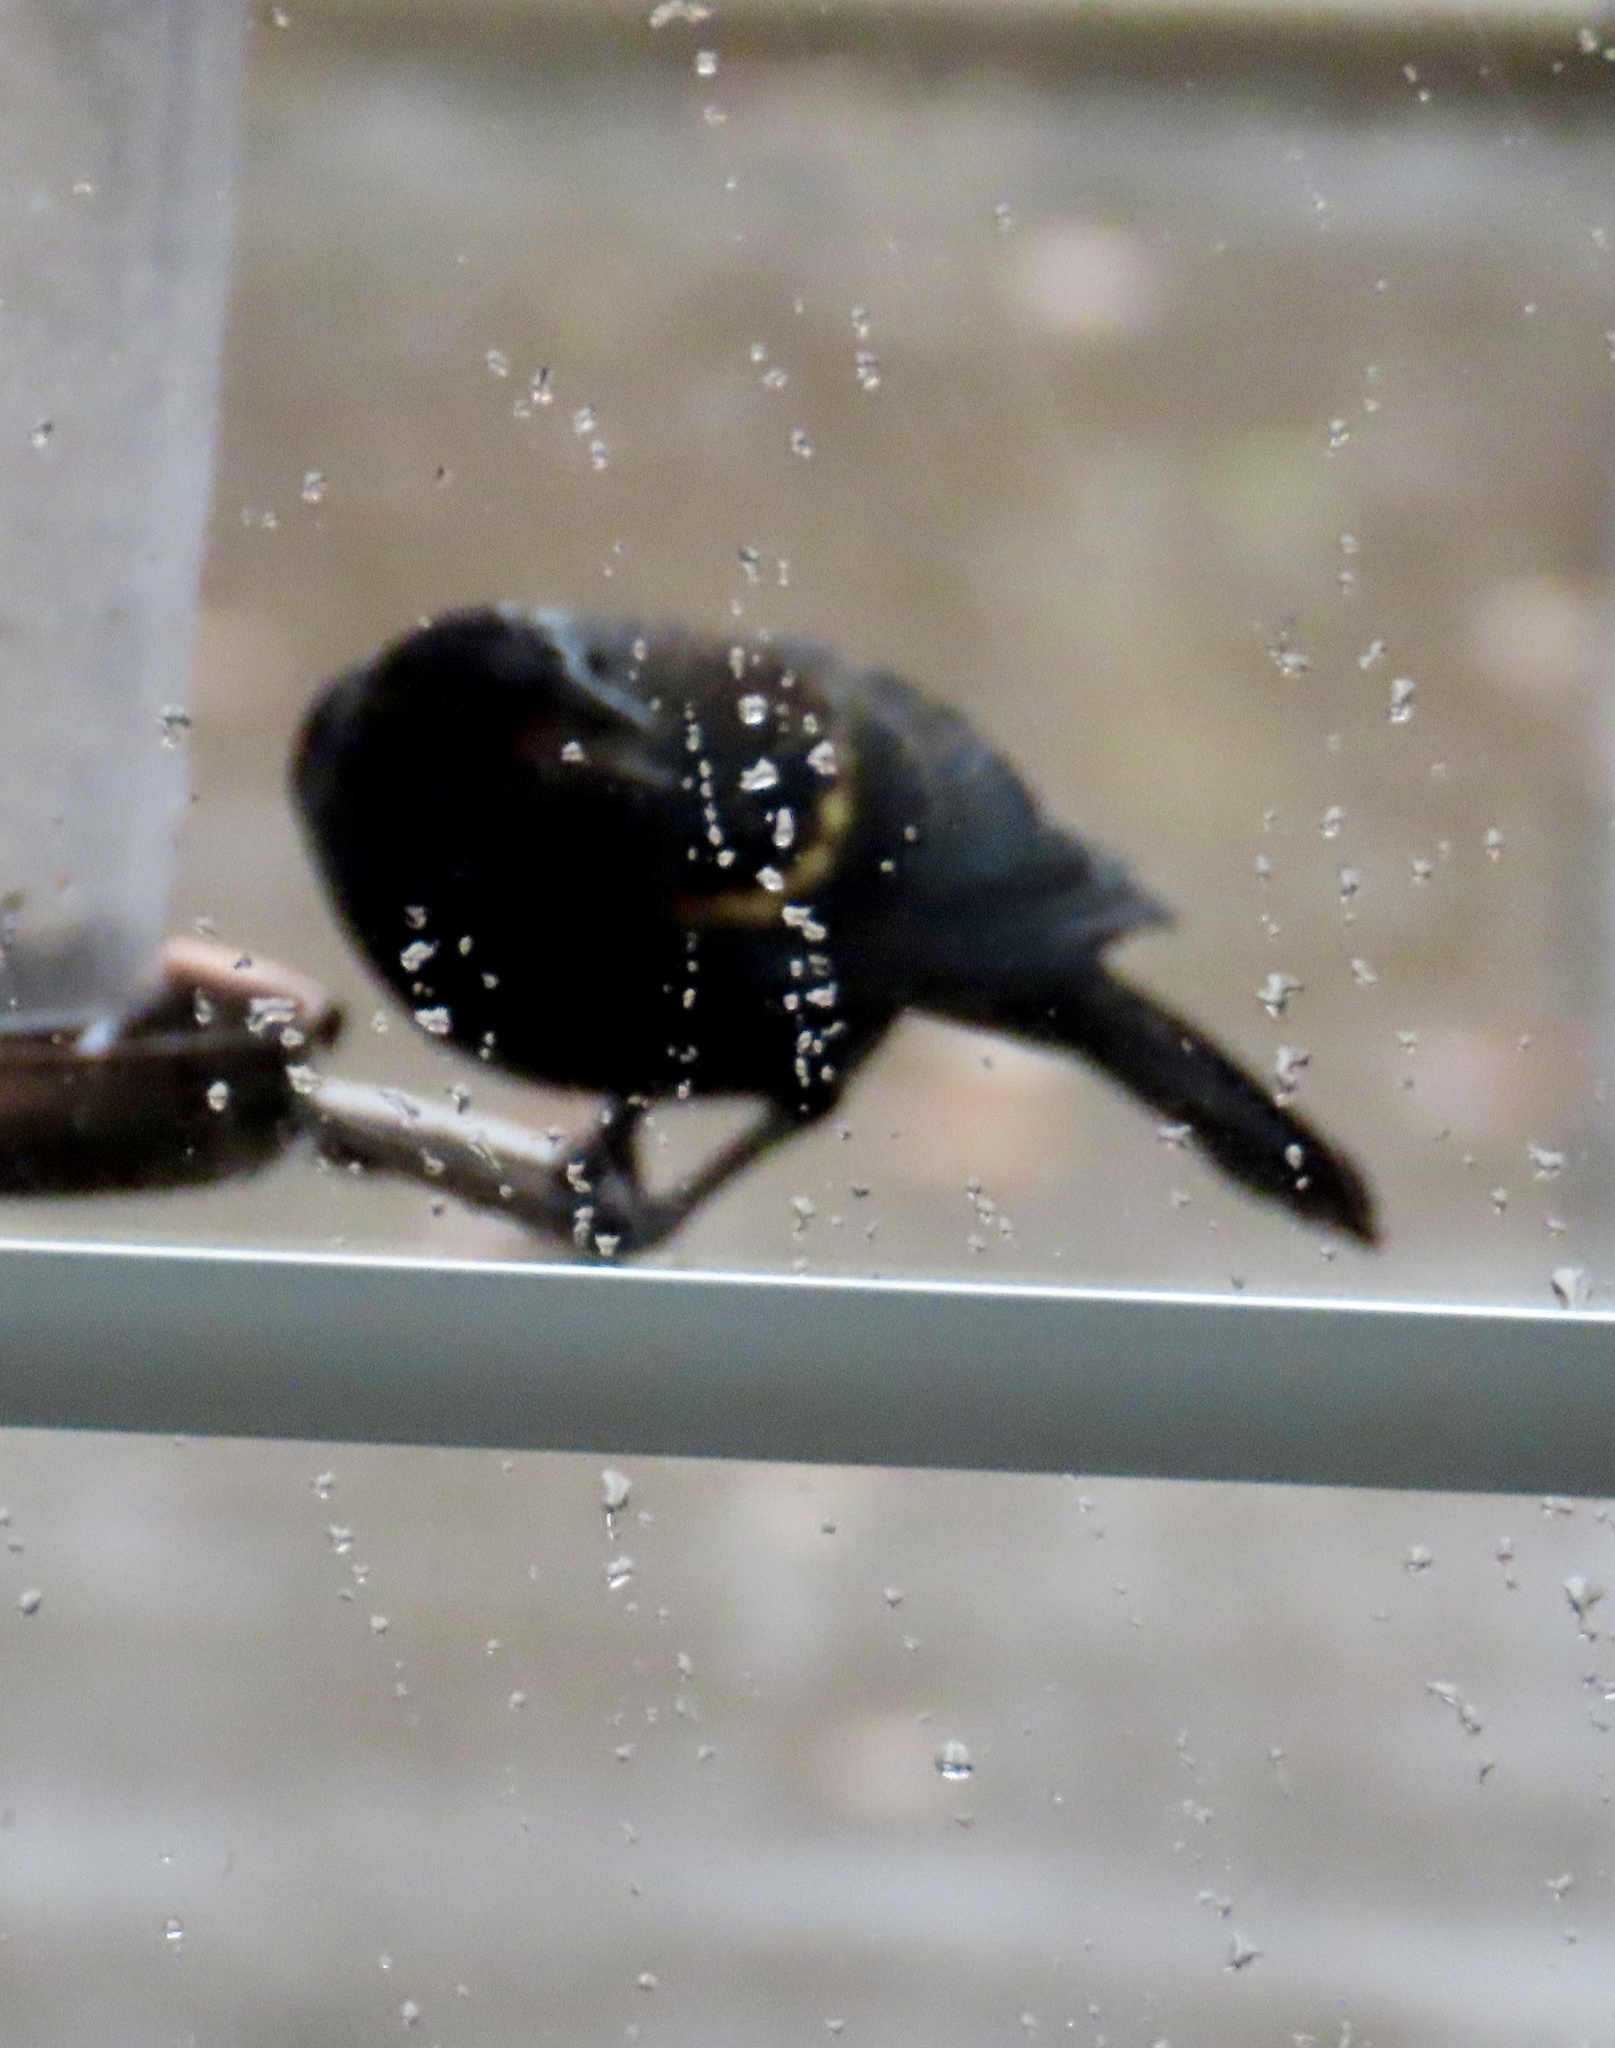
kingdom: Animalia
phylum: Chordata
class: Aves
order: Passeriformes
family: Icteridae
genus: Agelaius
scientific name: Agelaius phoeniceus
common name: Red-winged blackbird
